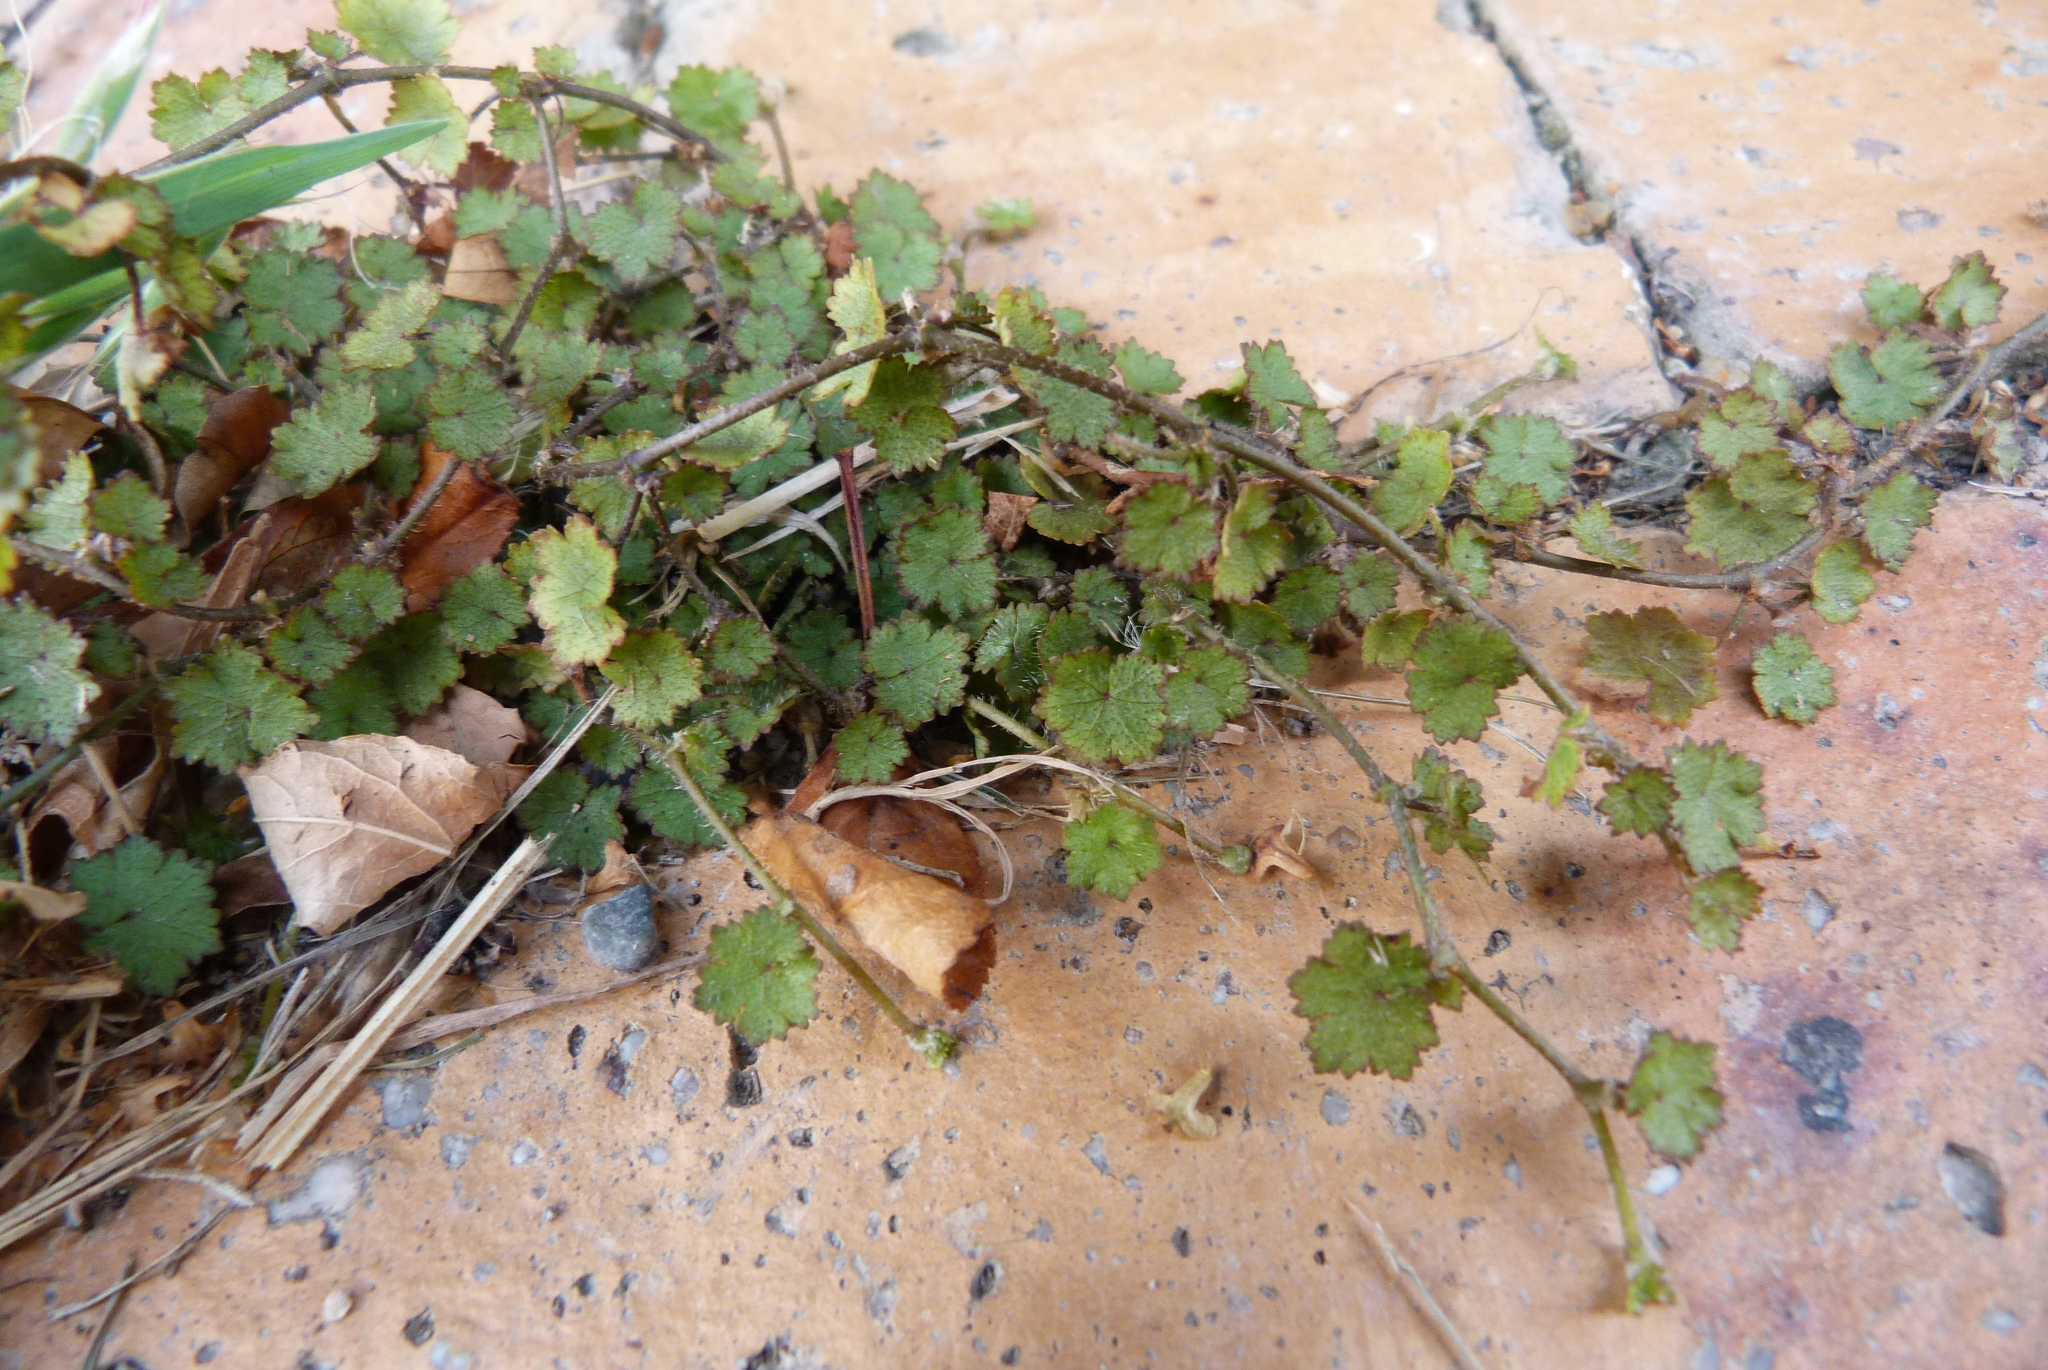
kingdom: Plantae
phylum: Tracheophyta
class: Magnoliopsida
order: Apiales
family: Araliaceae
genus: Hydrocotyle
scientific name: Hydrocotyle moschata
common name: Hairy pennywort
